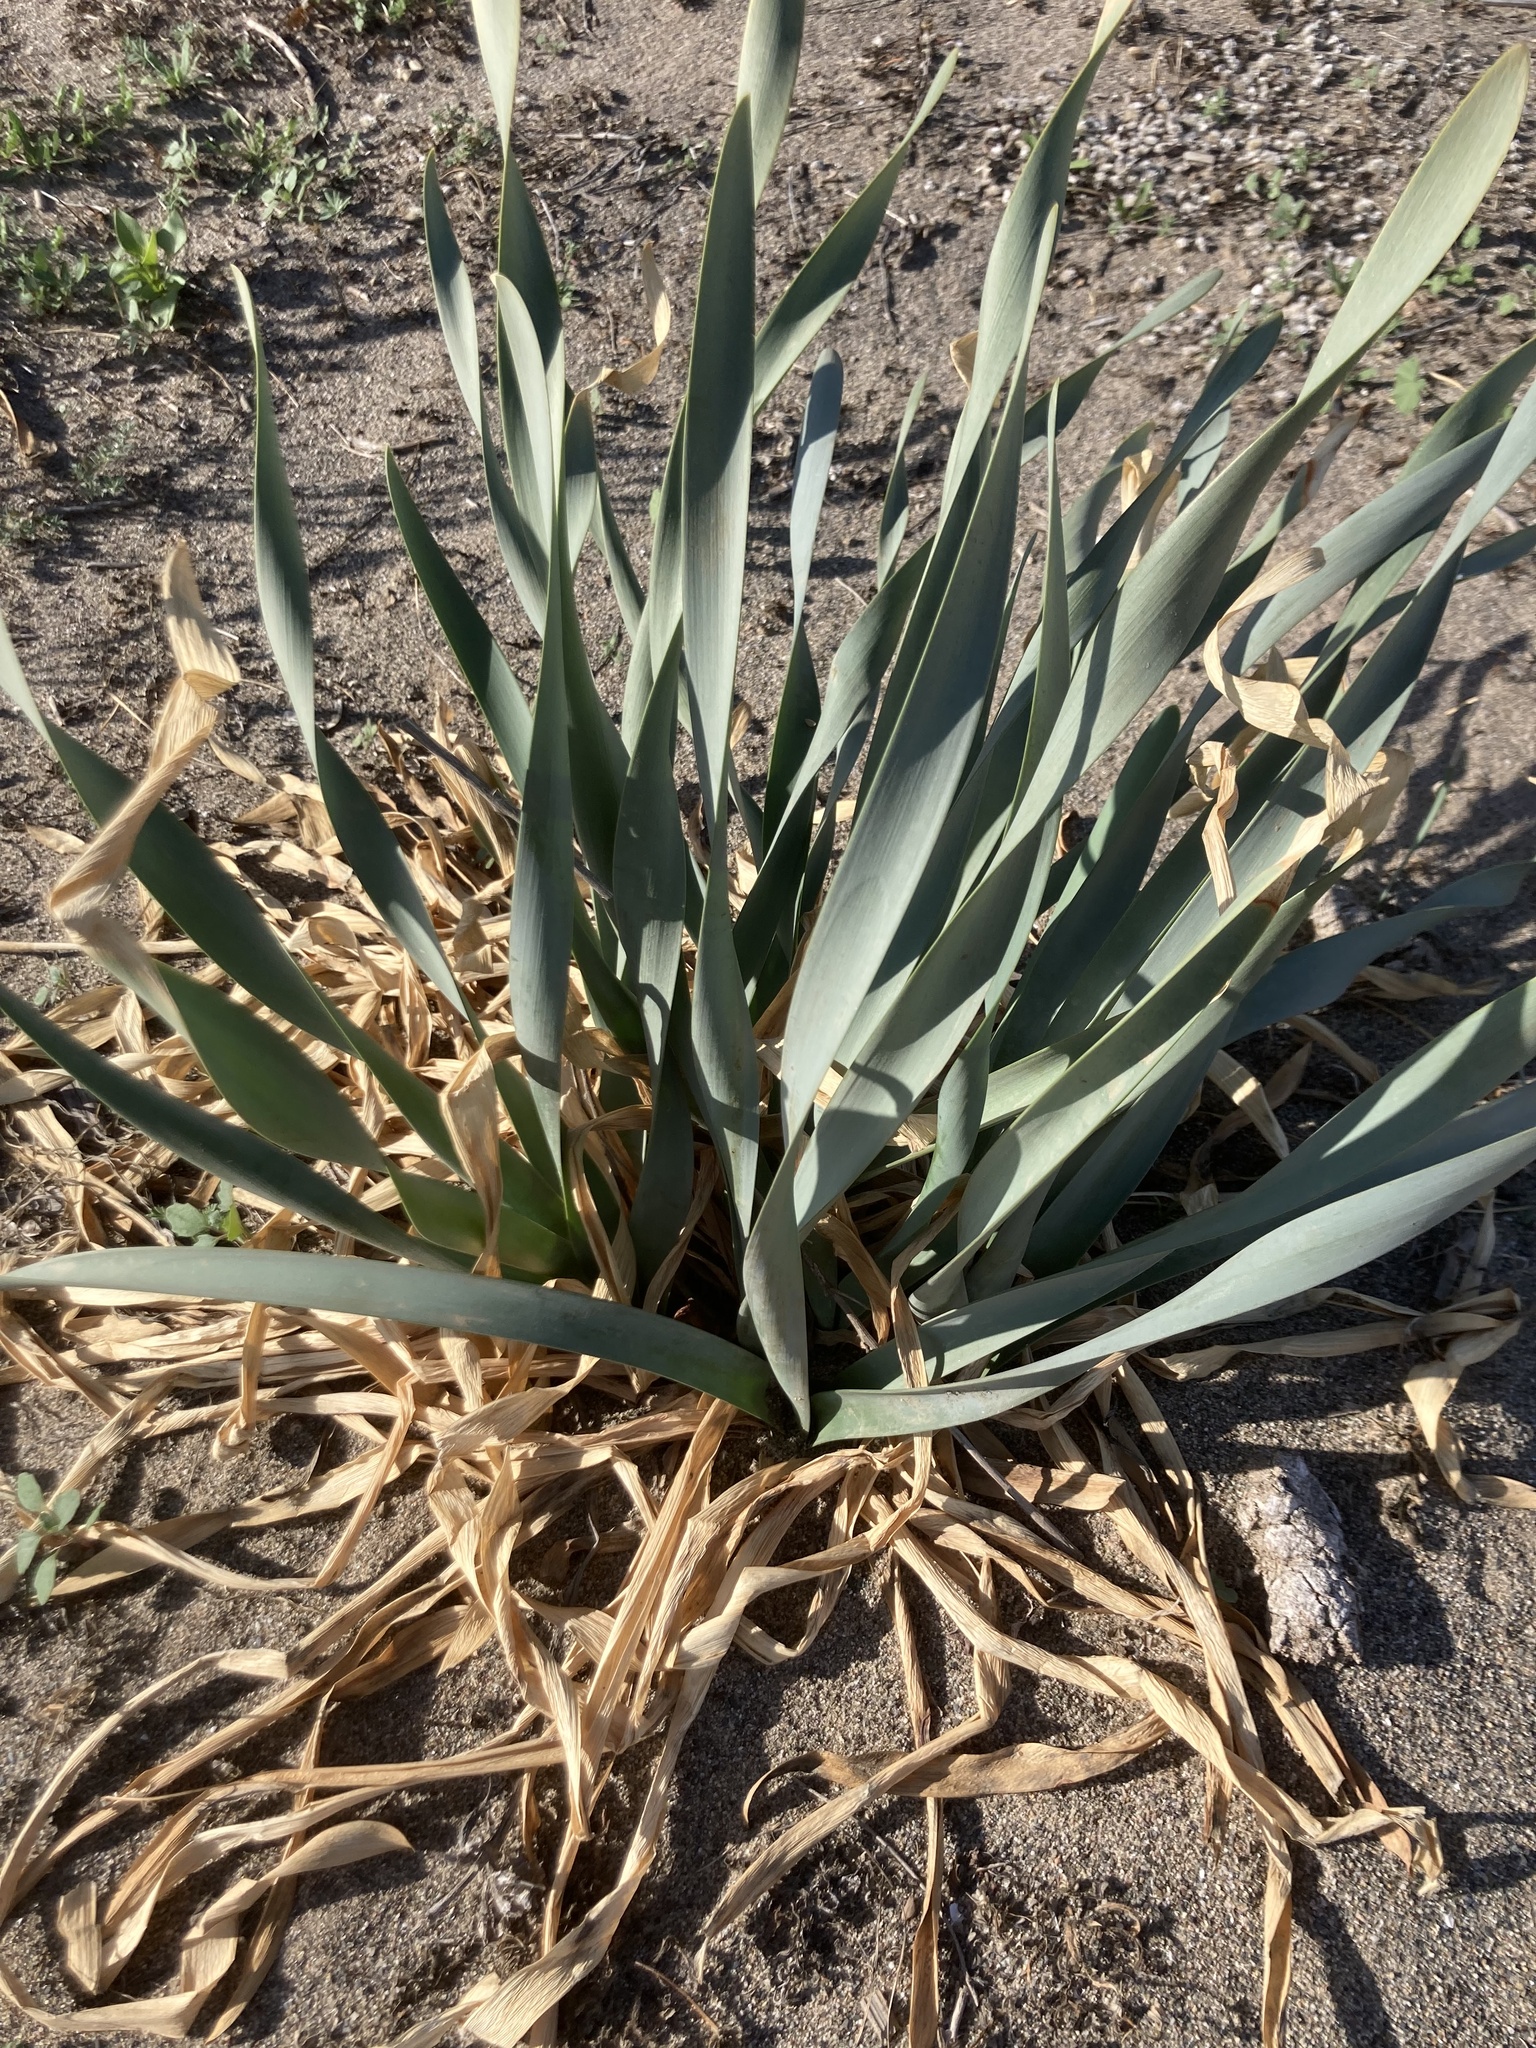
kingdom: Plantae
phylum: Tracheophyta
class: Liliopsida
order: Asparagales
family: Amaryllidaceae
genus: Pancratium
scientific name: Pancratium maritimum
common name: Sea-daffodil
